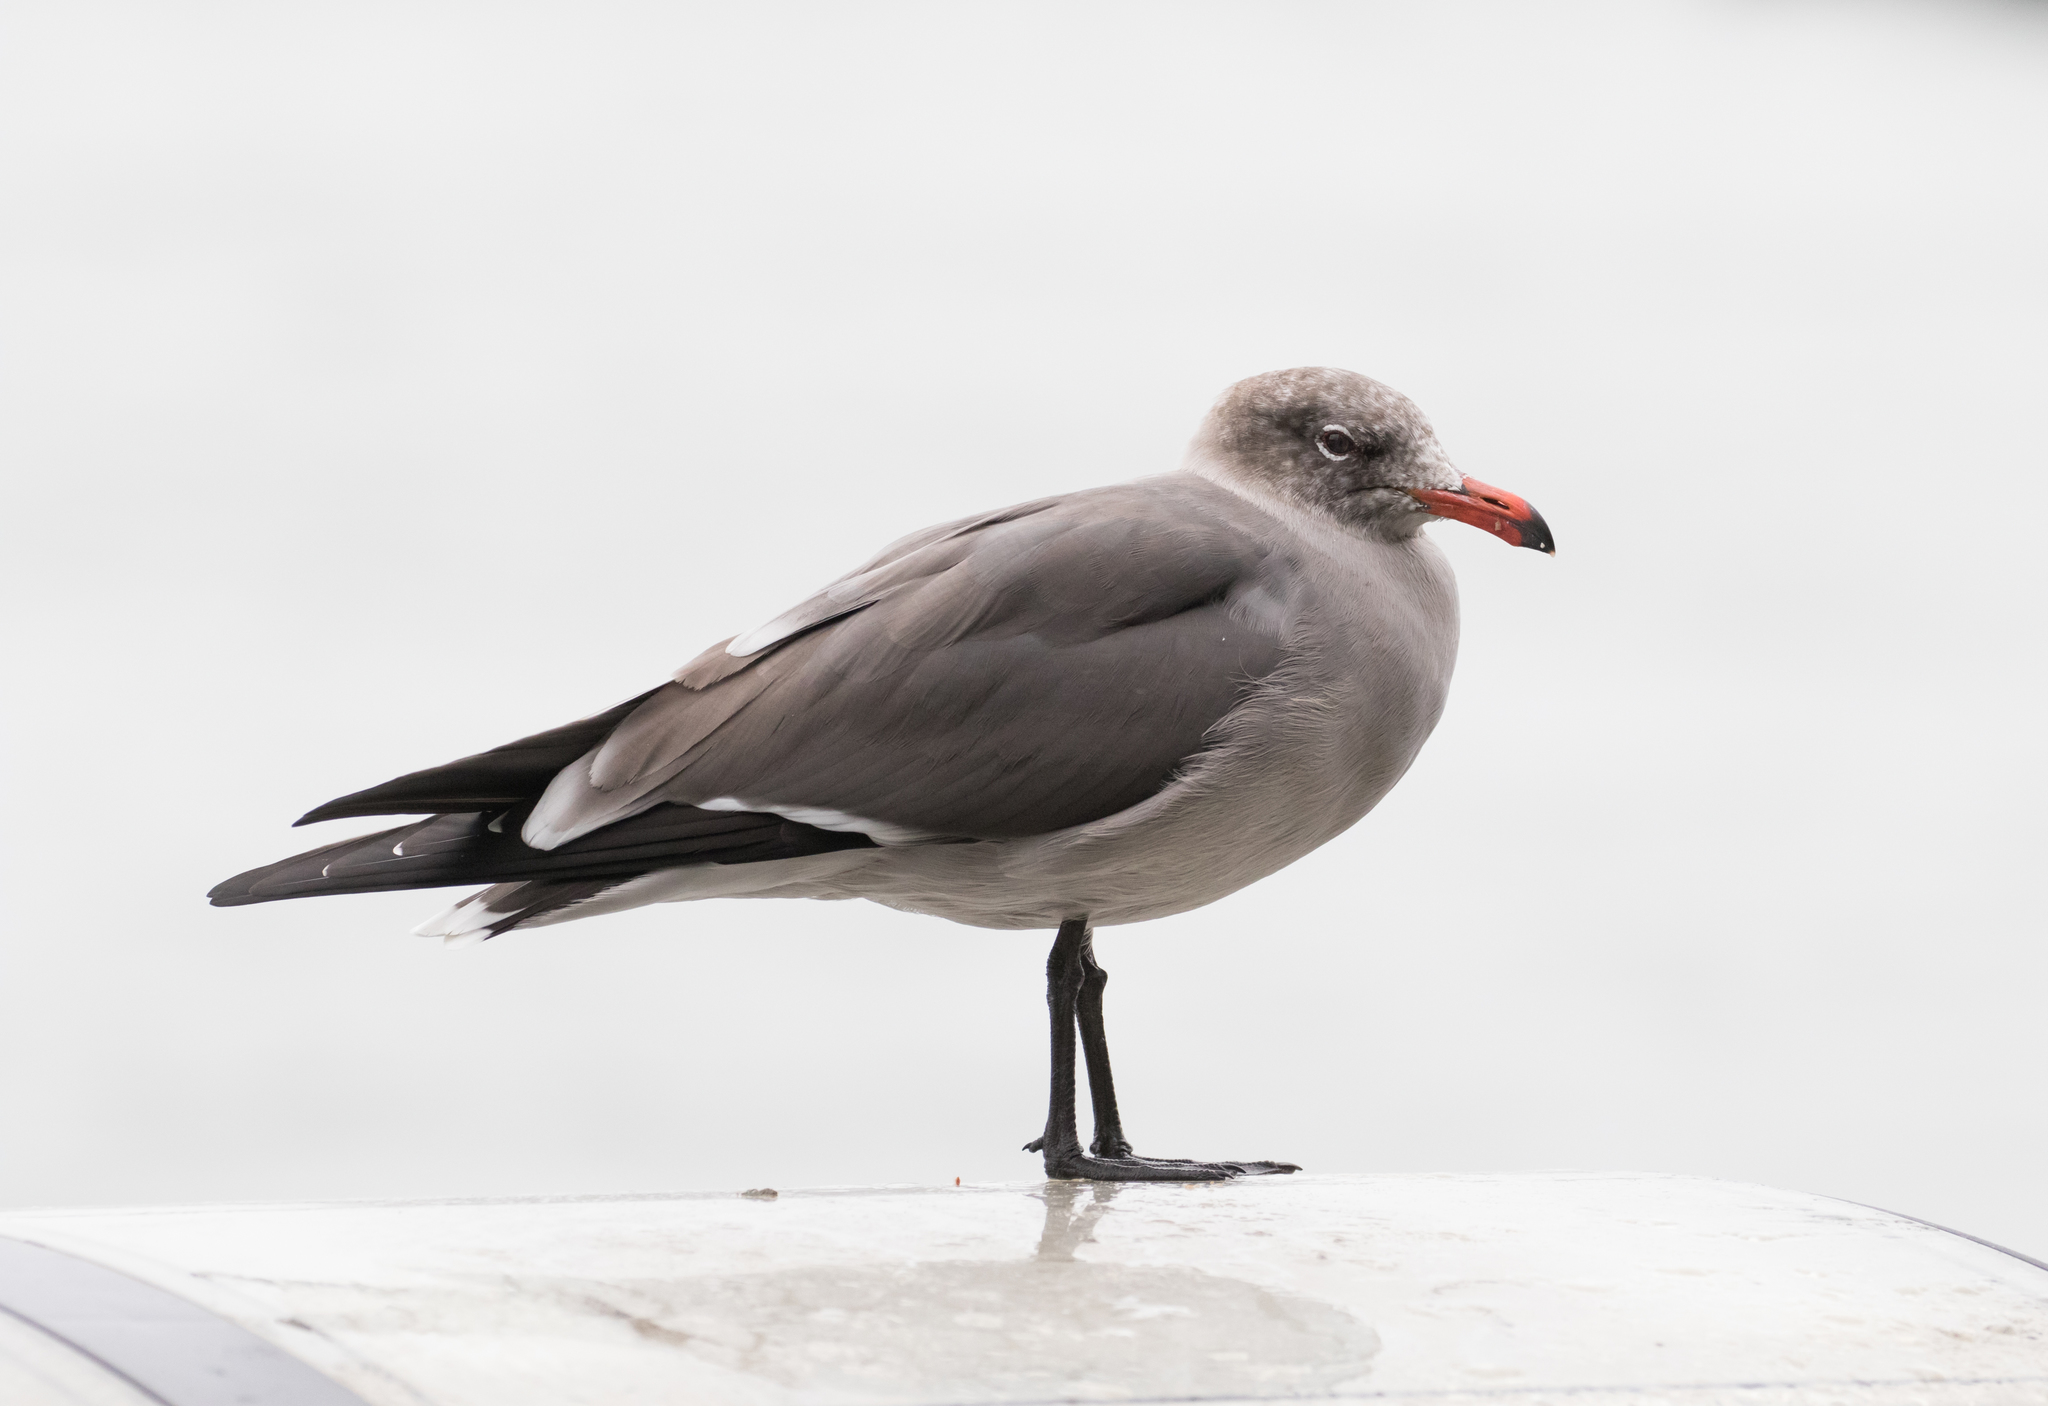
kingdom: Animalia
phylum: Chordata
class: Aves
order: Charadriiformes
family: Laridae
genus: Larus
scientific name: Larus heermanni
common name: Heermann's gull
